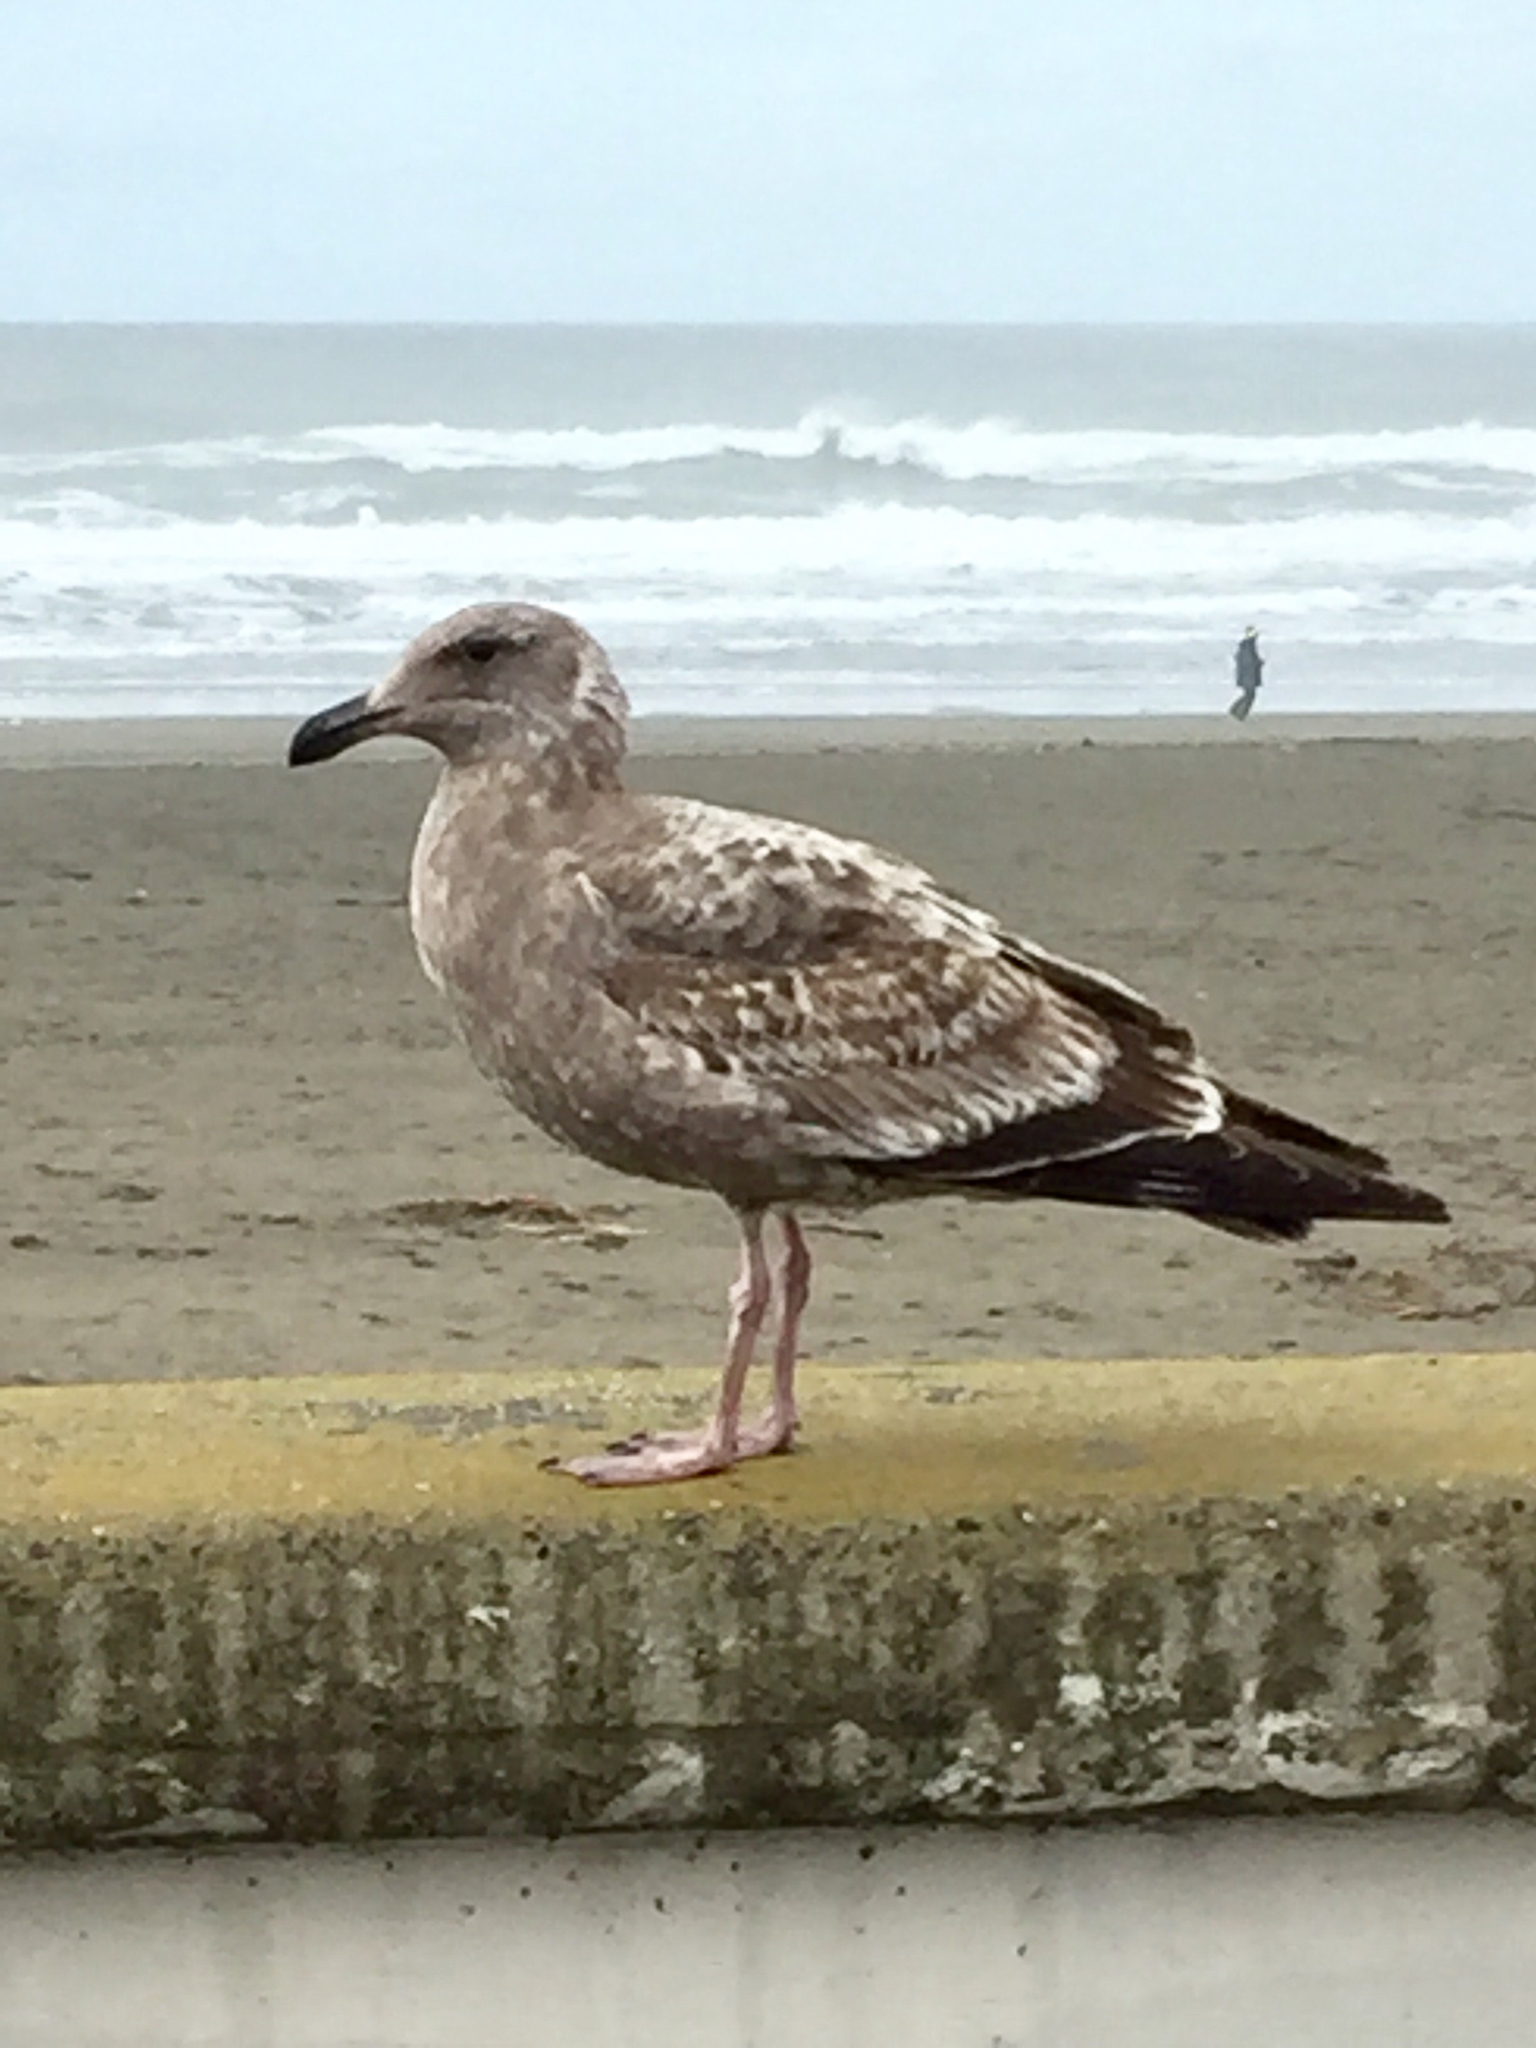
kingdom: Animalia
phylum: Chordata
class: Aves
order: Charadriiformes
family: Laridae
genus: Larus
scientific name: Larus occidentalis
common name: Western gull
